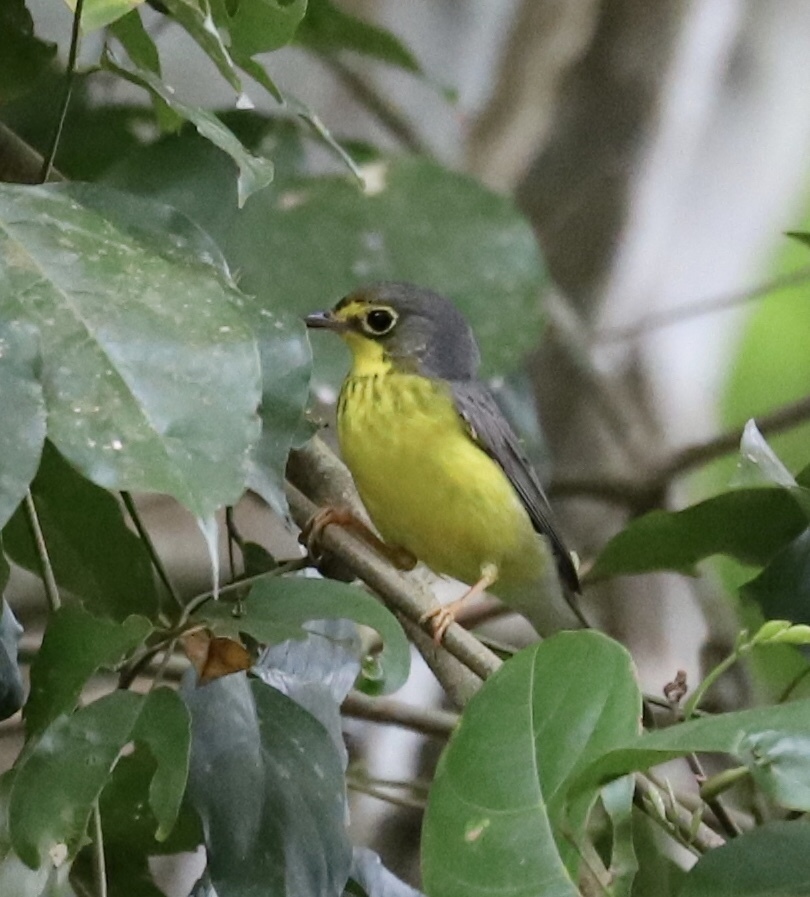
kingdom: Animalia
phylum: Chordata
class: Aves
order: Passeriformes
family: Parulidae
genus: Cardellina
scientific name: Cardellina canadensis
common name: Canada warbler
